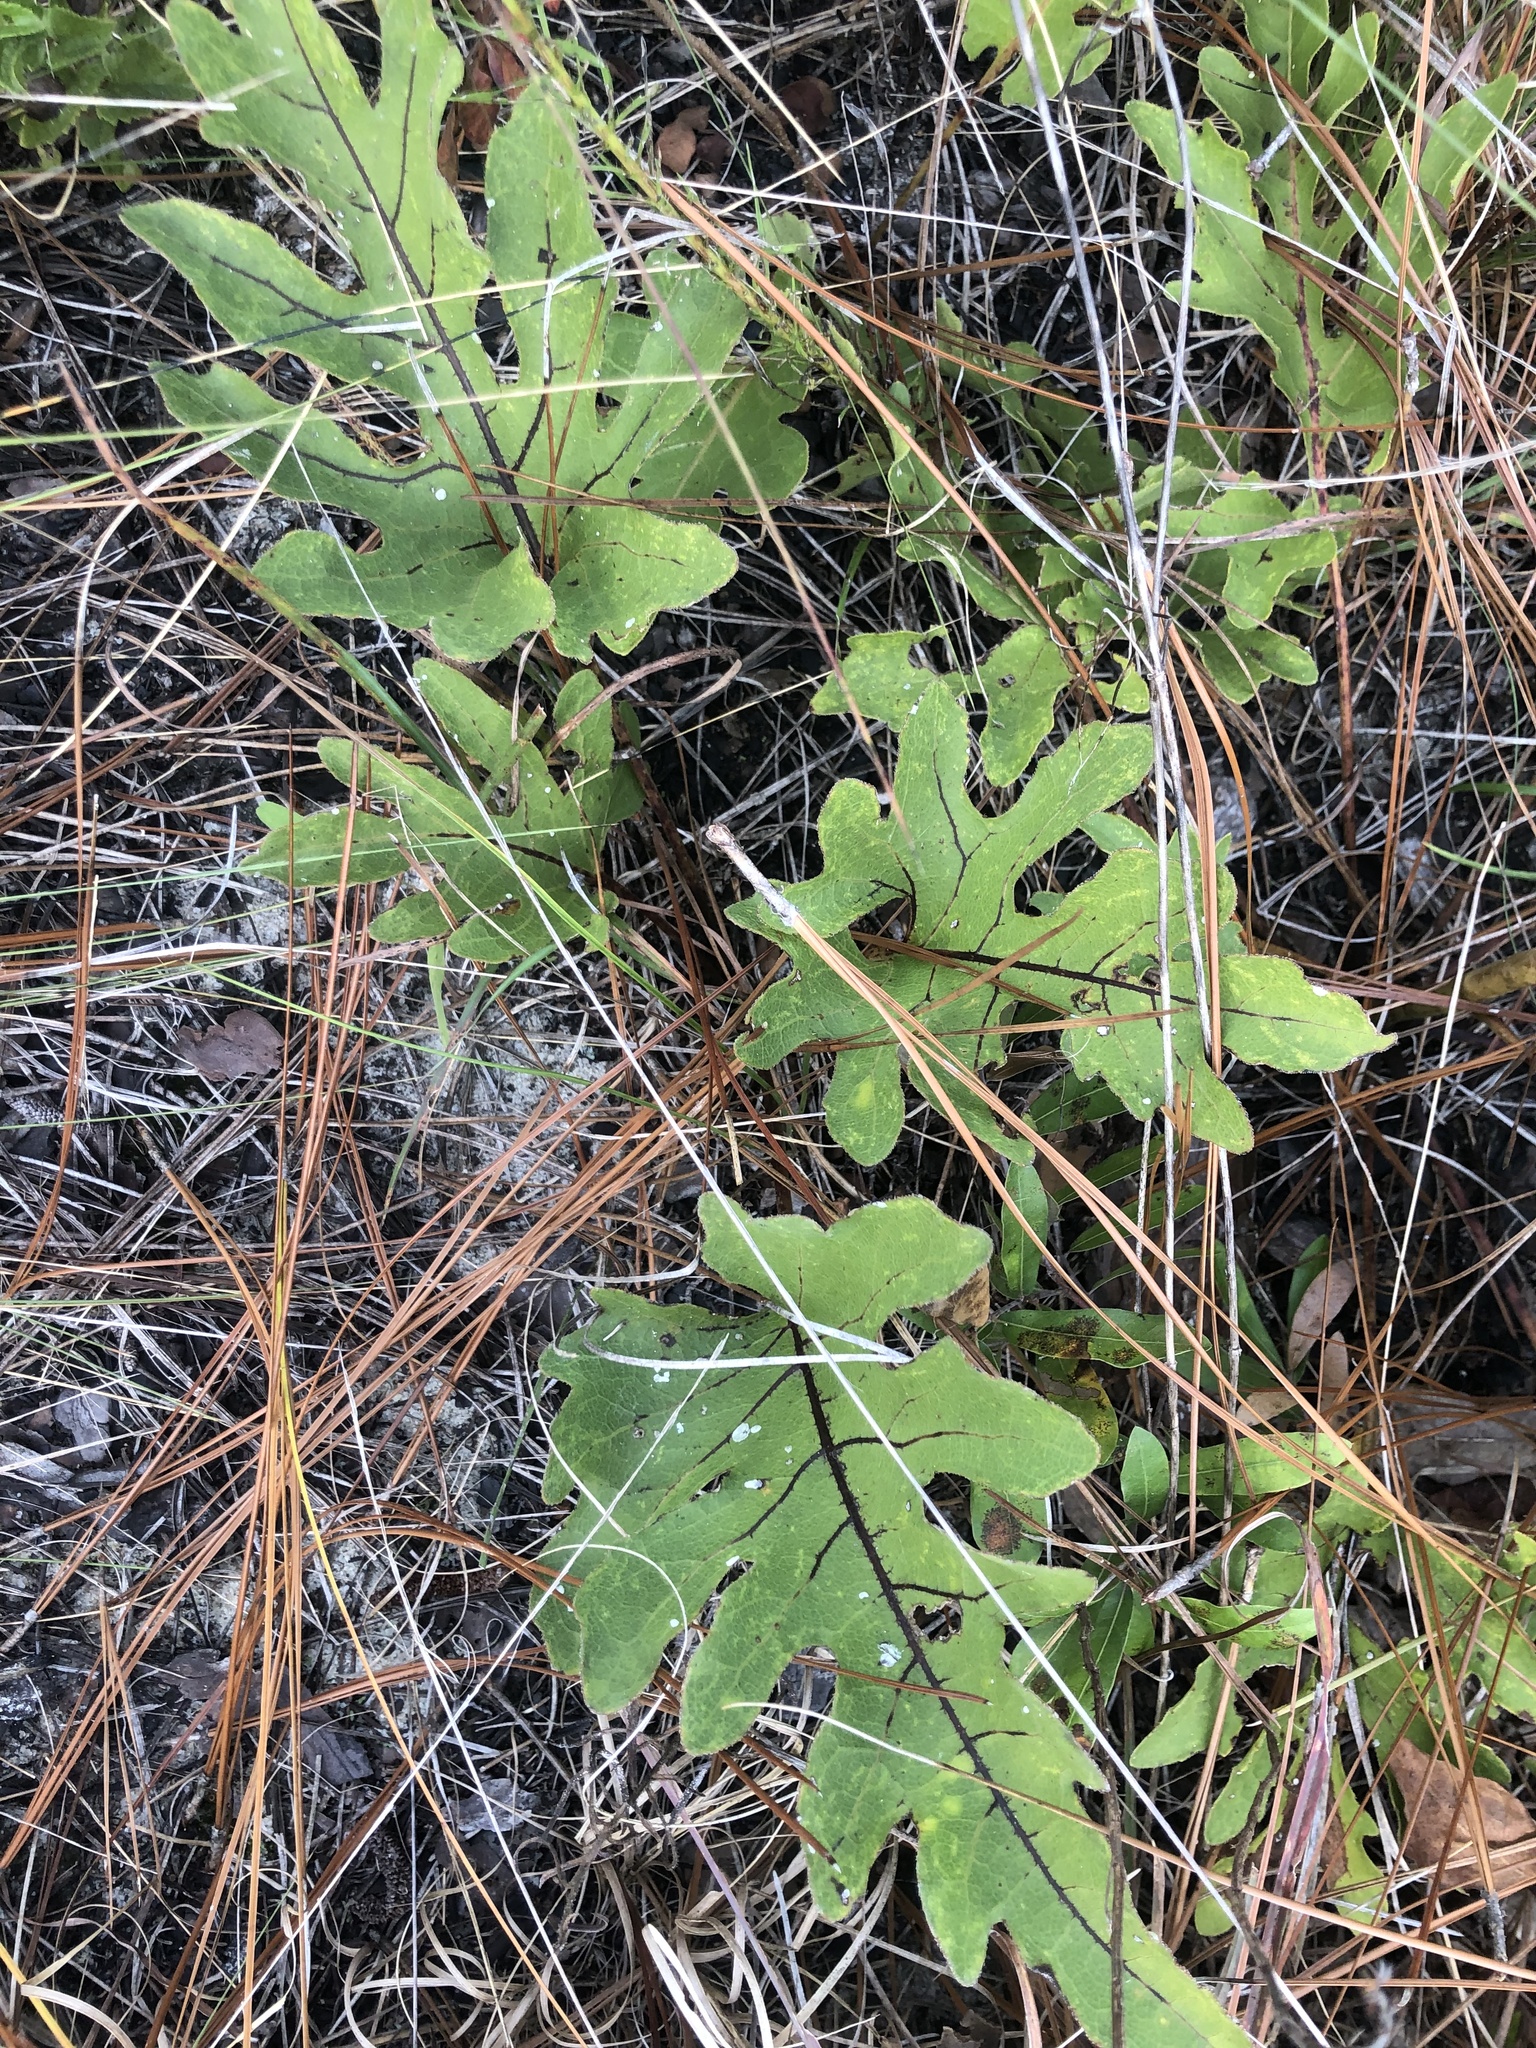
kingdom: Plantae
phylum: Tracheophyta
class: Magnoliopsida
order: Asterales
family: Asteraceae
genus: Silphium
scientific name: Silphium compositum
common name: Lesser basal-leaf rosinweed
